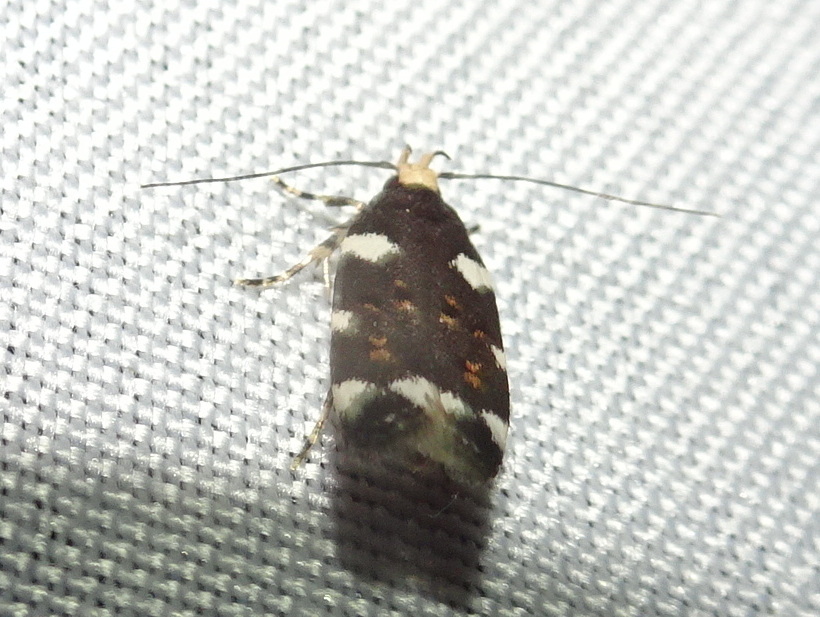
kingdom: Animalia
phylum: Arthropoda
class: Insecta
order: Lepidoptera
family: Gelechiidae
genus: Fascista
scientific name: Fascista cercerisella
